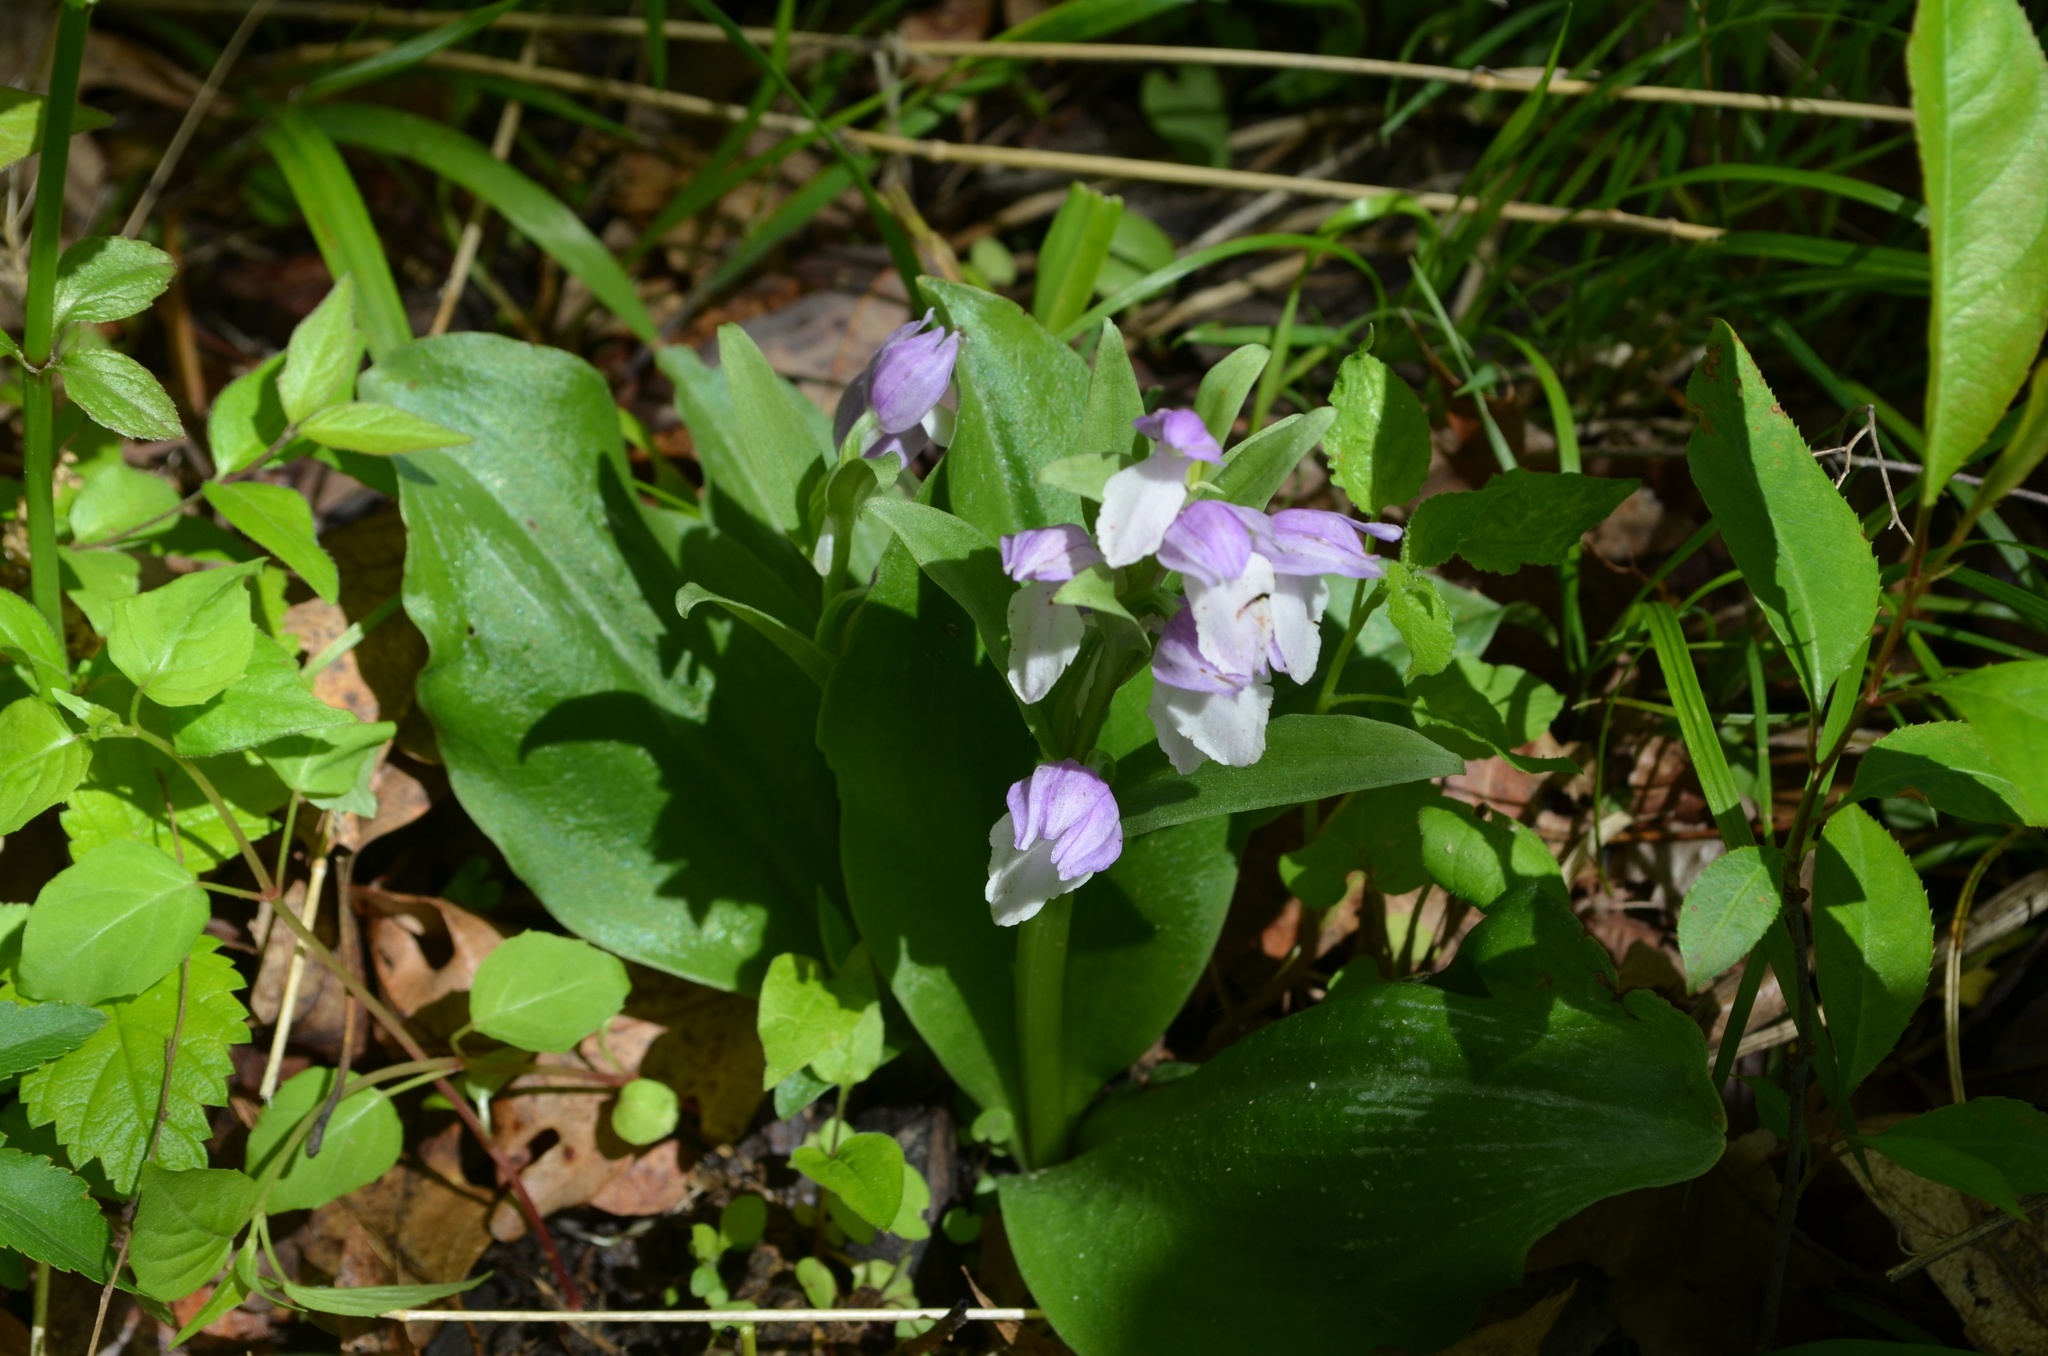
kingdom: Plantae
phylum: Tracheophyta
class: Liliopsida
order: Asparagales
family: Orchidaceae
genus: Galearis
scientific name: Galearis spectabilis
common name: Purple-hooded orchis
